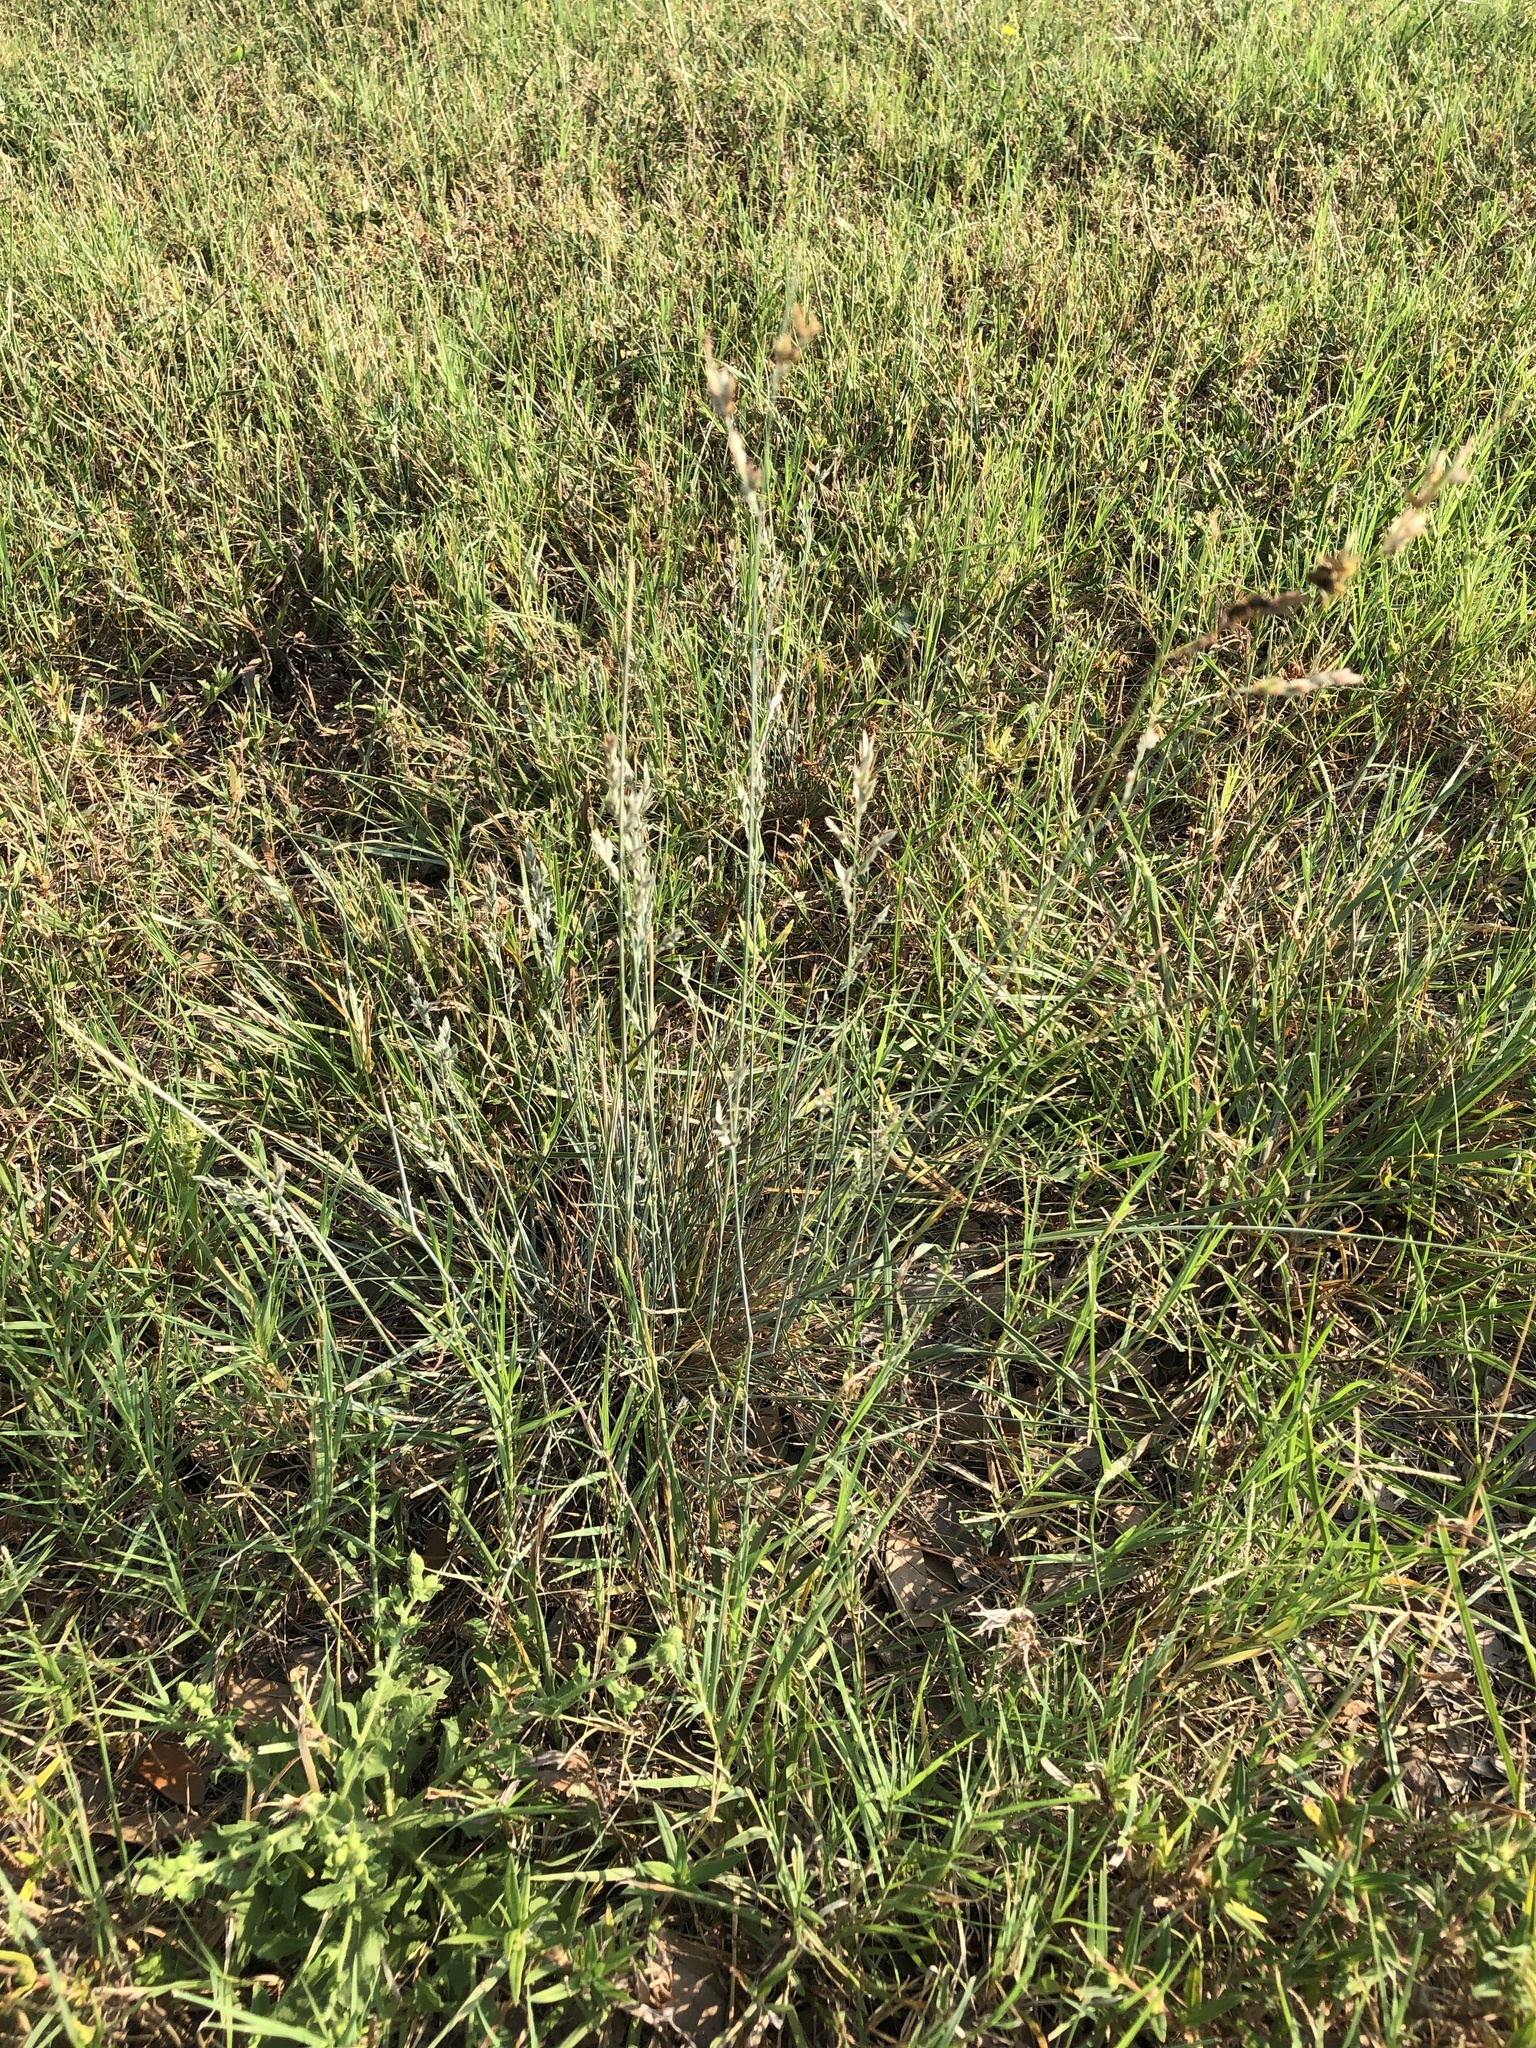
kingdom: Plantae
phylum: Tracheophyta
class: Liliopsida
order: Poales
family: Poaceae
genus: Eragrostis
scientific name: Eragrostis secundiflora
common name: Red love grass
